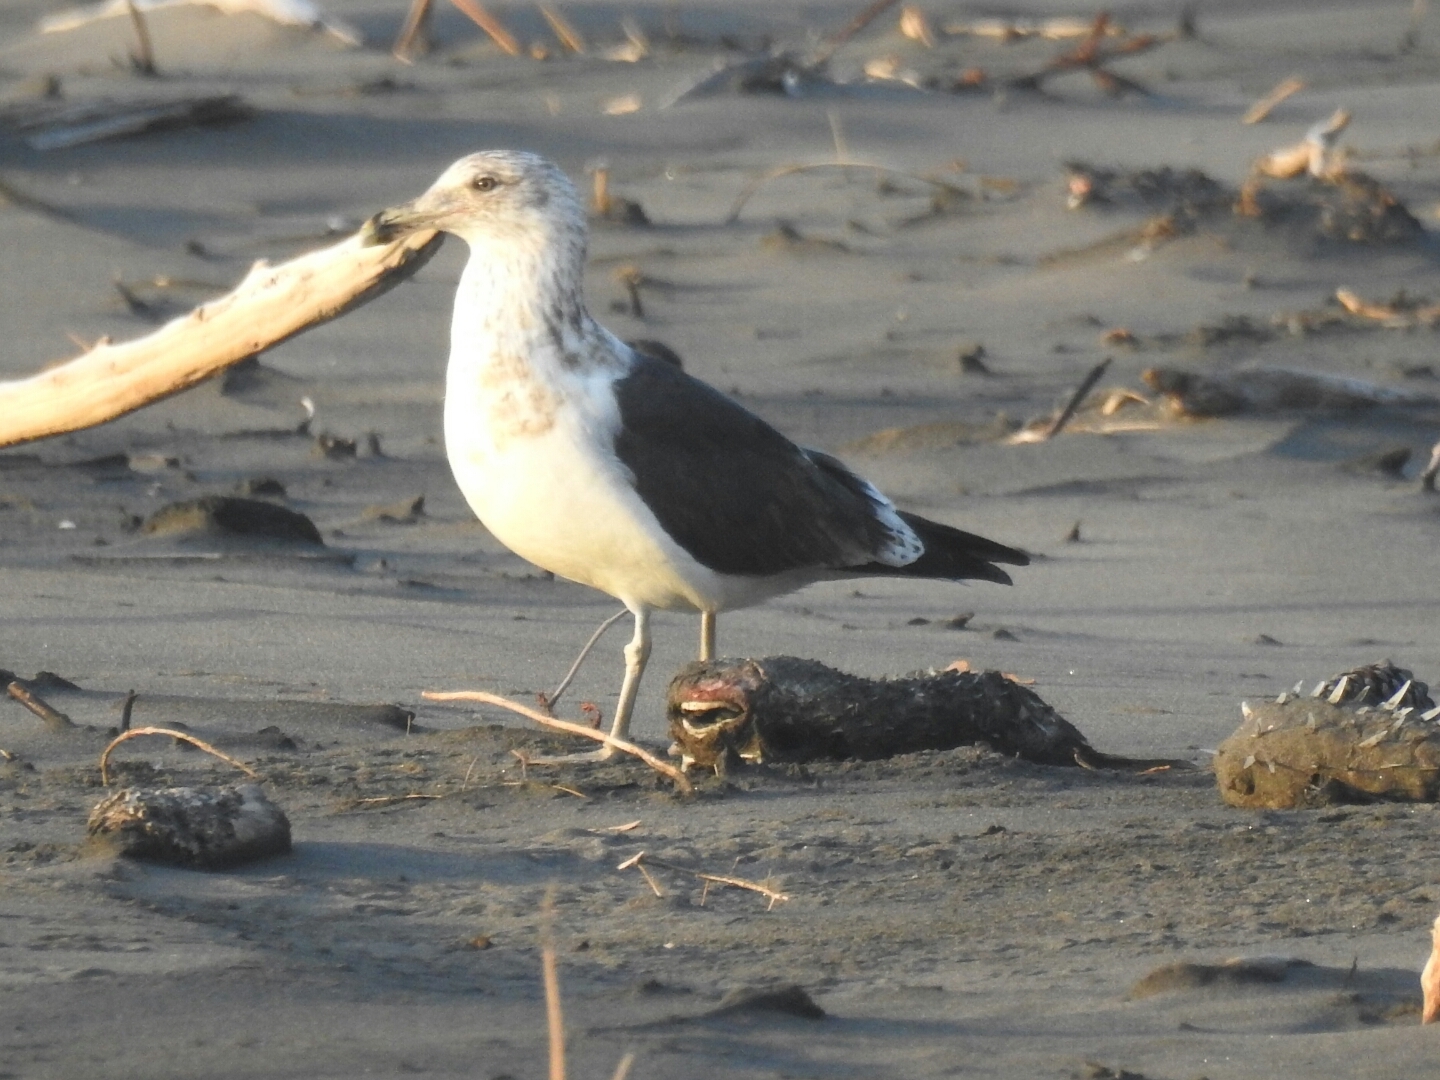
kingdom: Animalia
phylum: Chordata
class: Aves
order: Charadriiformes
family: Laridae
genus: Larus
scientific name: Larus dominicanus
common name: Kelp gull
